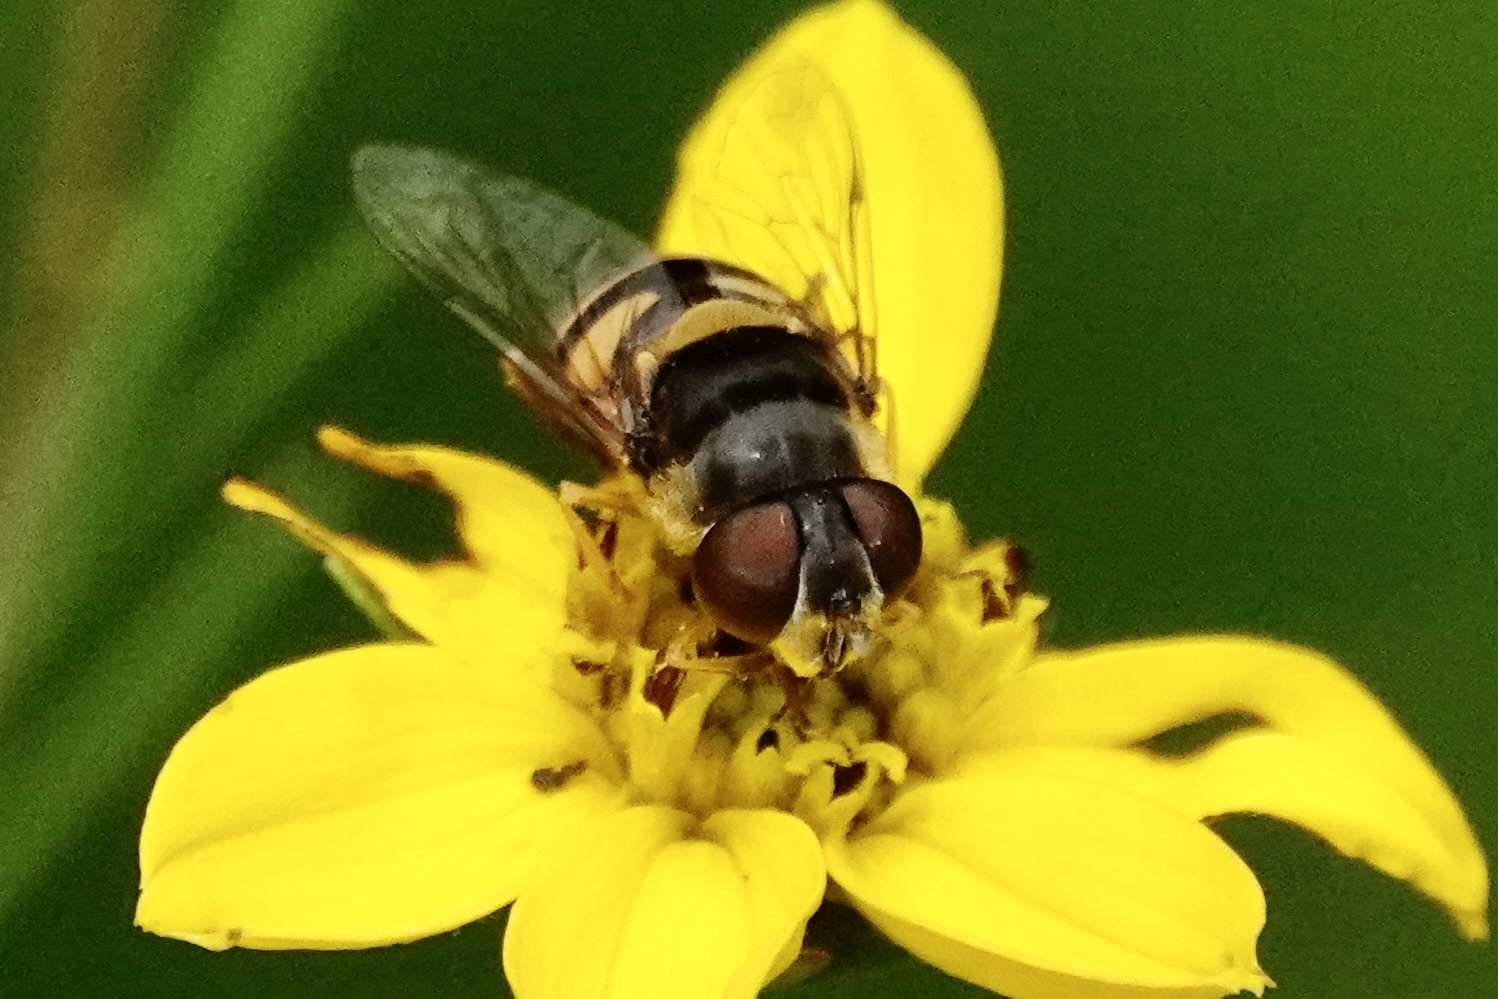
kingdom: Animalia
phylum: Arthropoda
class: Insecta
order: Diptera
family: Syrphidae
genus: Eristalis
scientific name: Eristalis transversa
